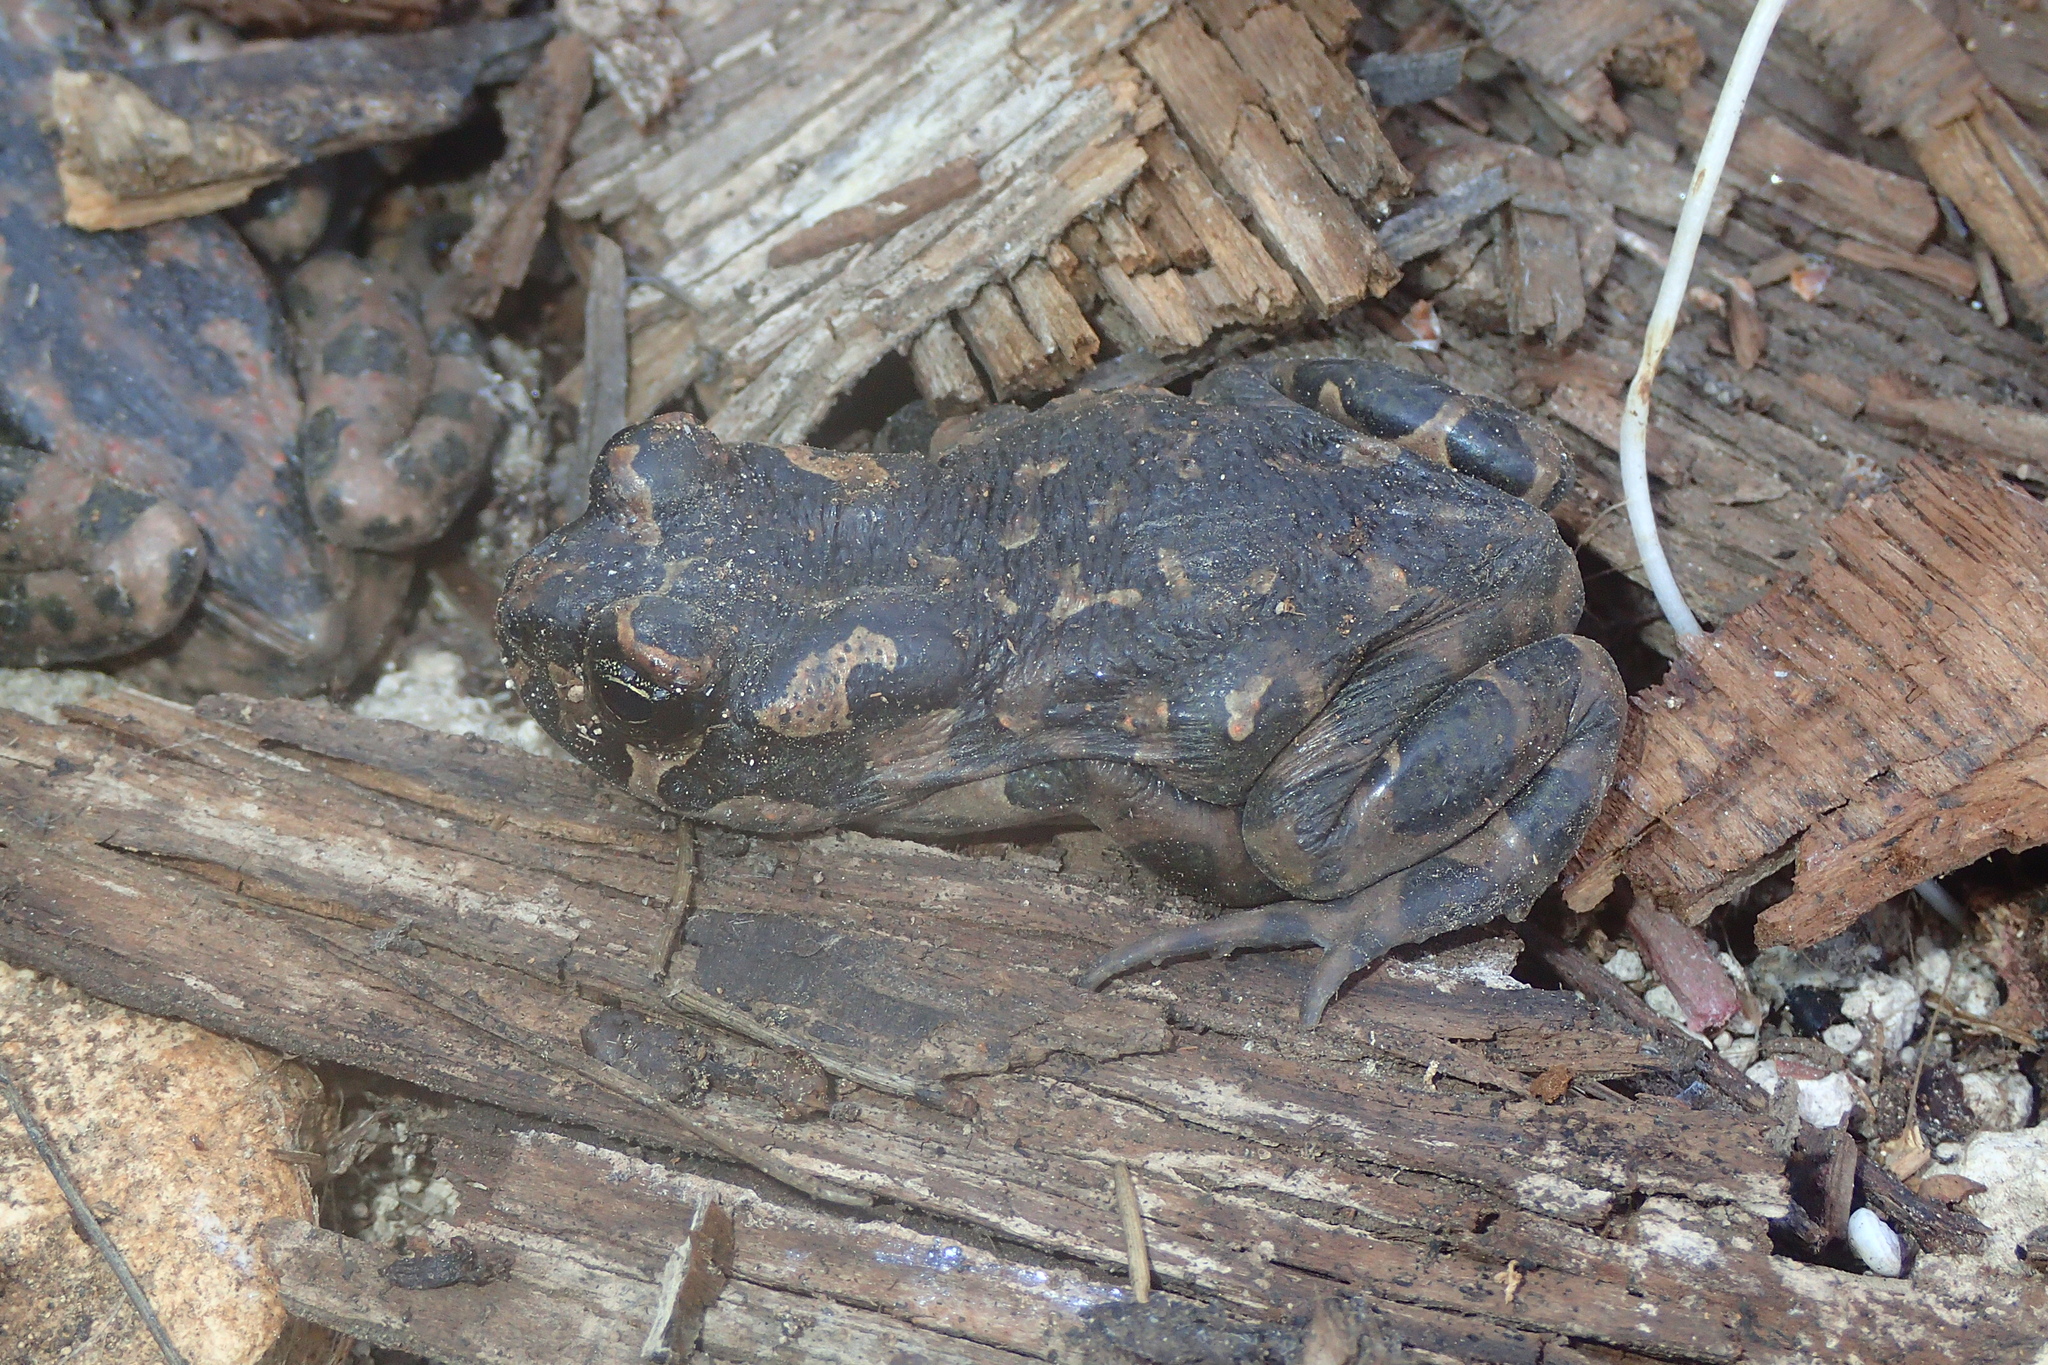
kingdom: Animalia
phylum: Chordata
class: Amphibia
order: Anura
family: Bufonidae
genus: Bufotes
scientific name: Bufotes cypriensis
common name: Cyprus green toad
